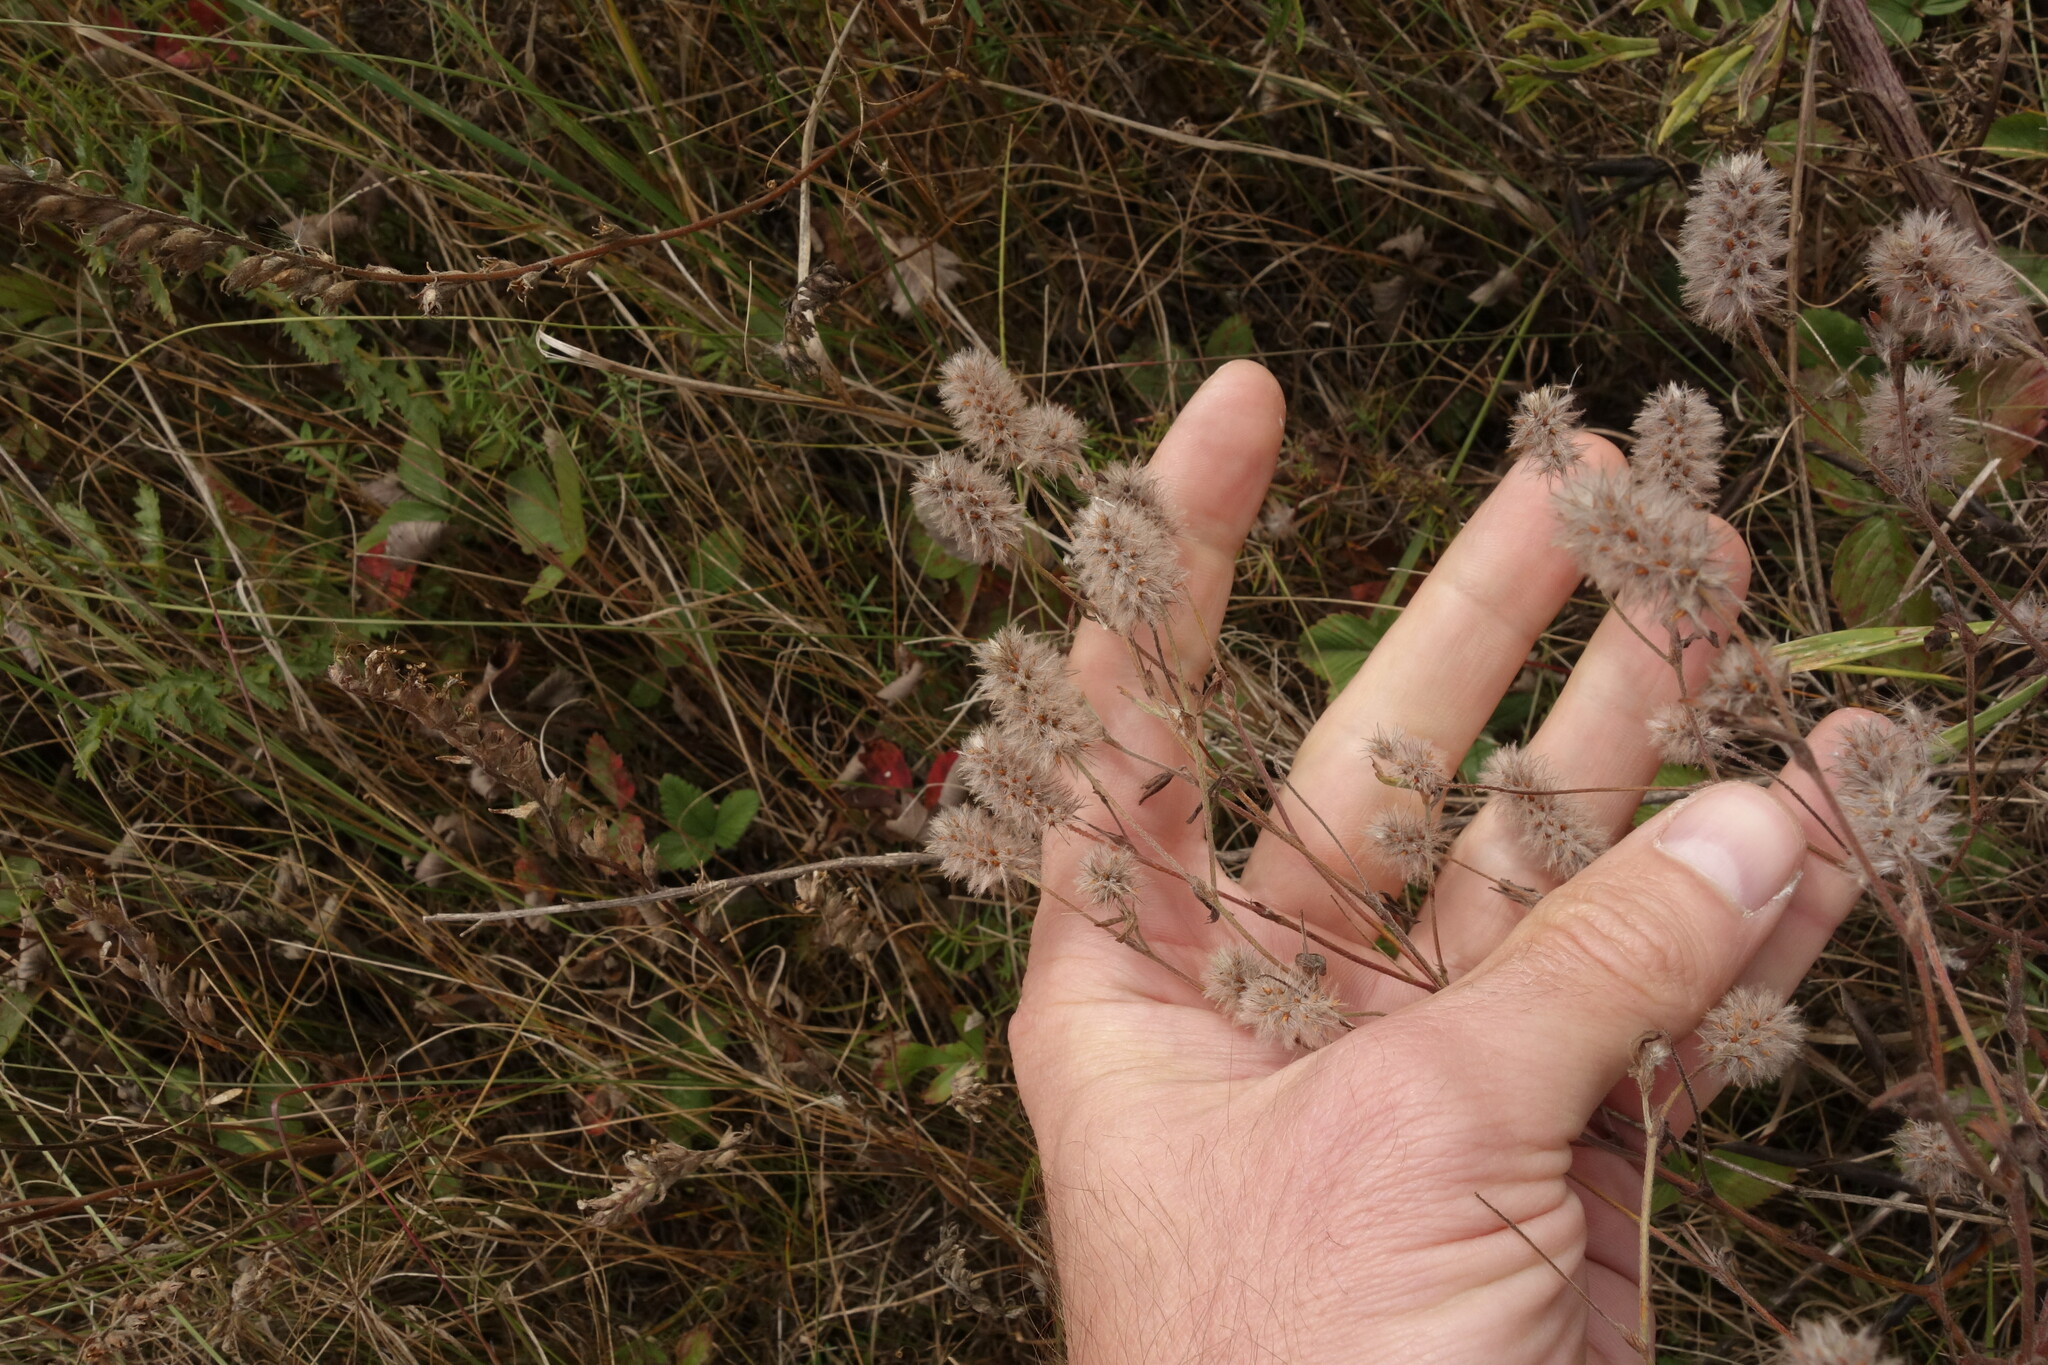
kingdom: Plantae
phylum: Tracheophyta
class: Magnoliopsida
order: Fabales
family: Fabaceae
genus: Trifolium
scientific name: Trifolium arvense
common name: Hare's-foot clover
